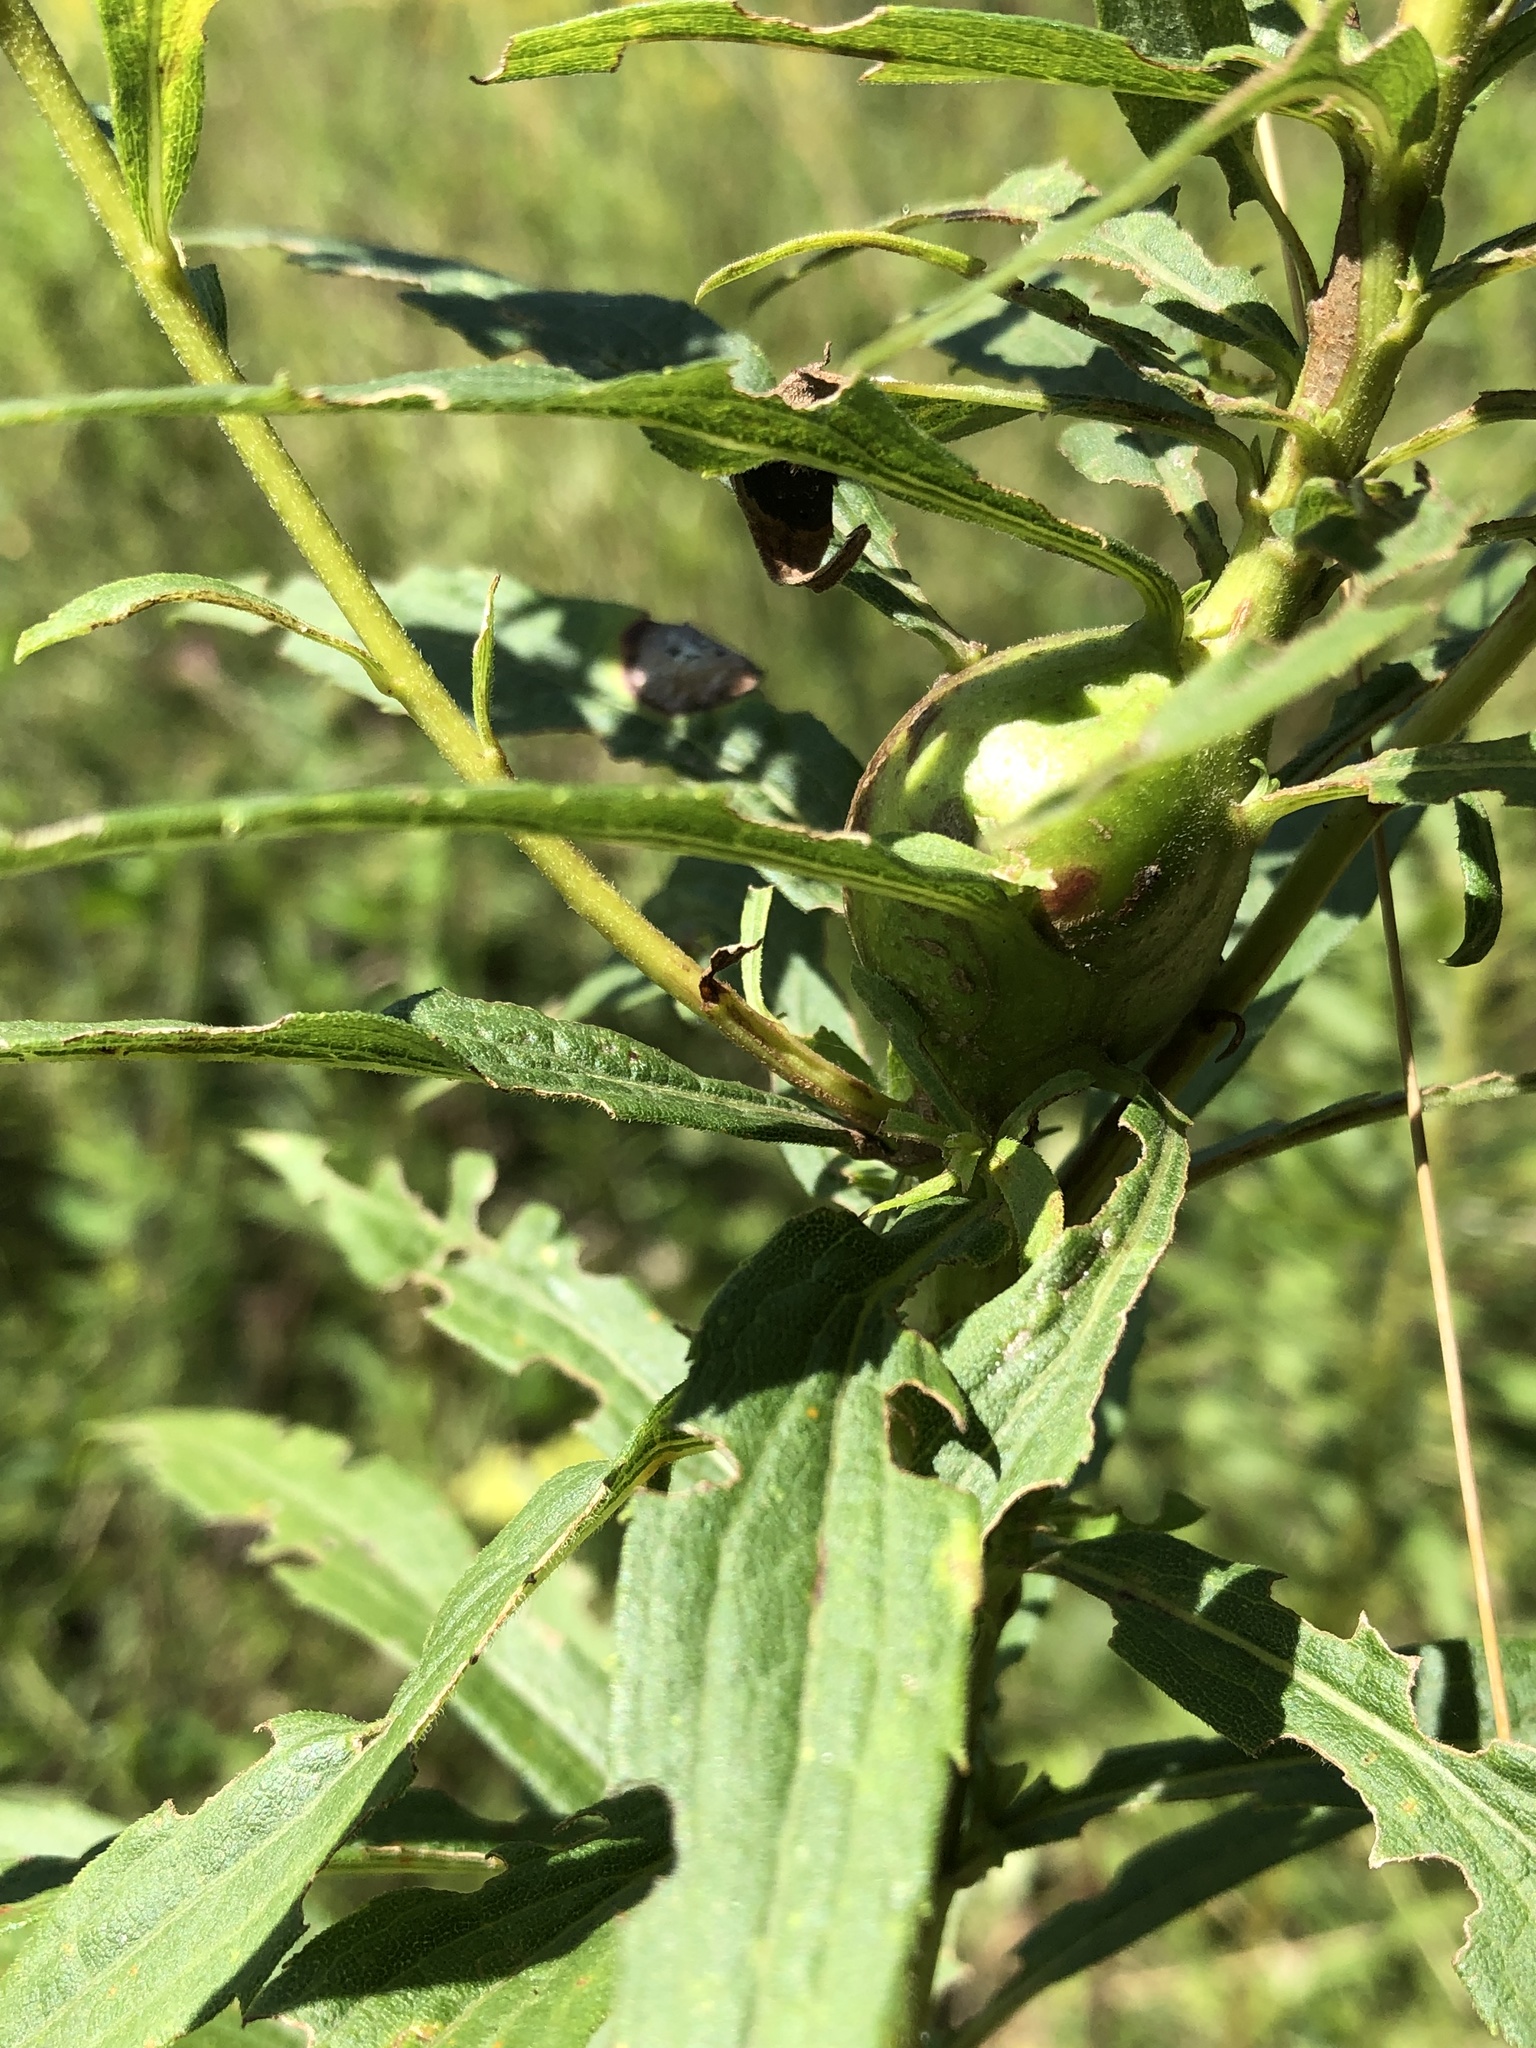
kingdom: Animalia
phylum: Arthropoda
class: Insecta
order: Diptera
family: Tephritidae
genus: Eurosta
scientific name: Eurosta solidaginis
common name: Goldenrod gall fly
